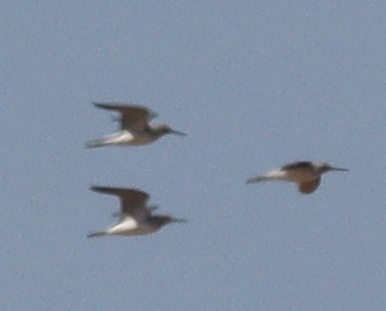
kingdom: Animalia
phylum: Chordata
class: Aves
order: Charadriiformes
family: Scolopacidae
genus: Tringa
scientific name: Tringa nebularia
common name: Common greenshank
